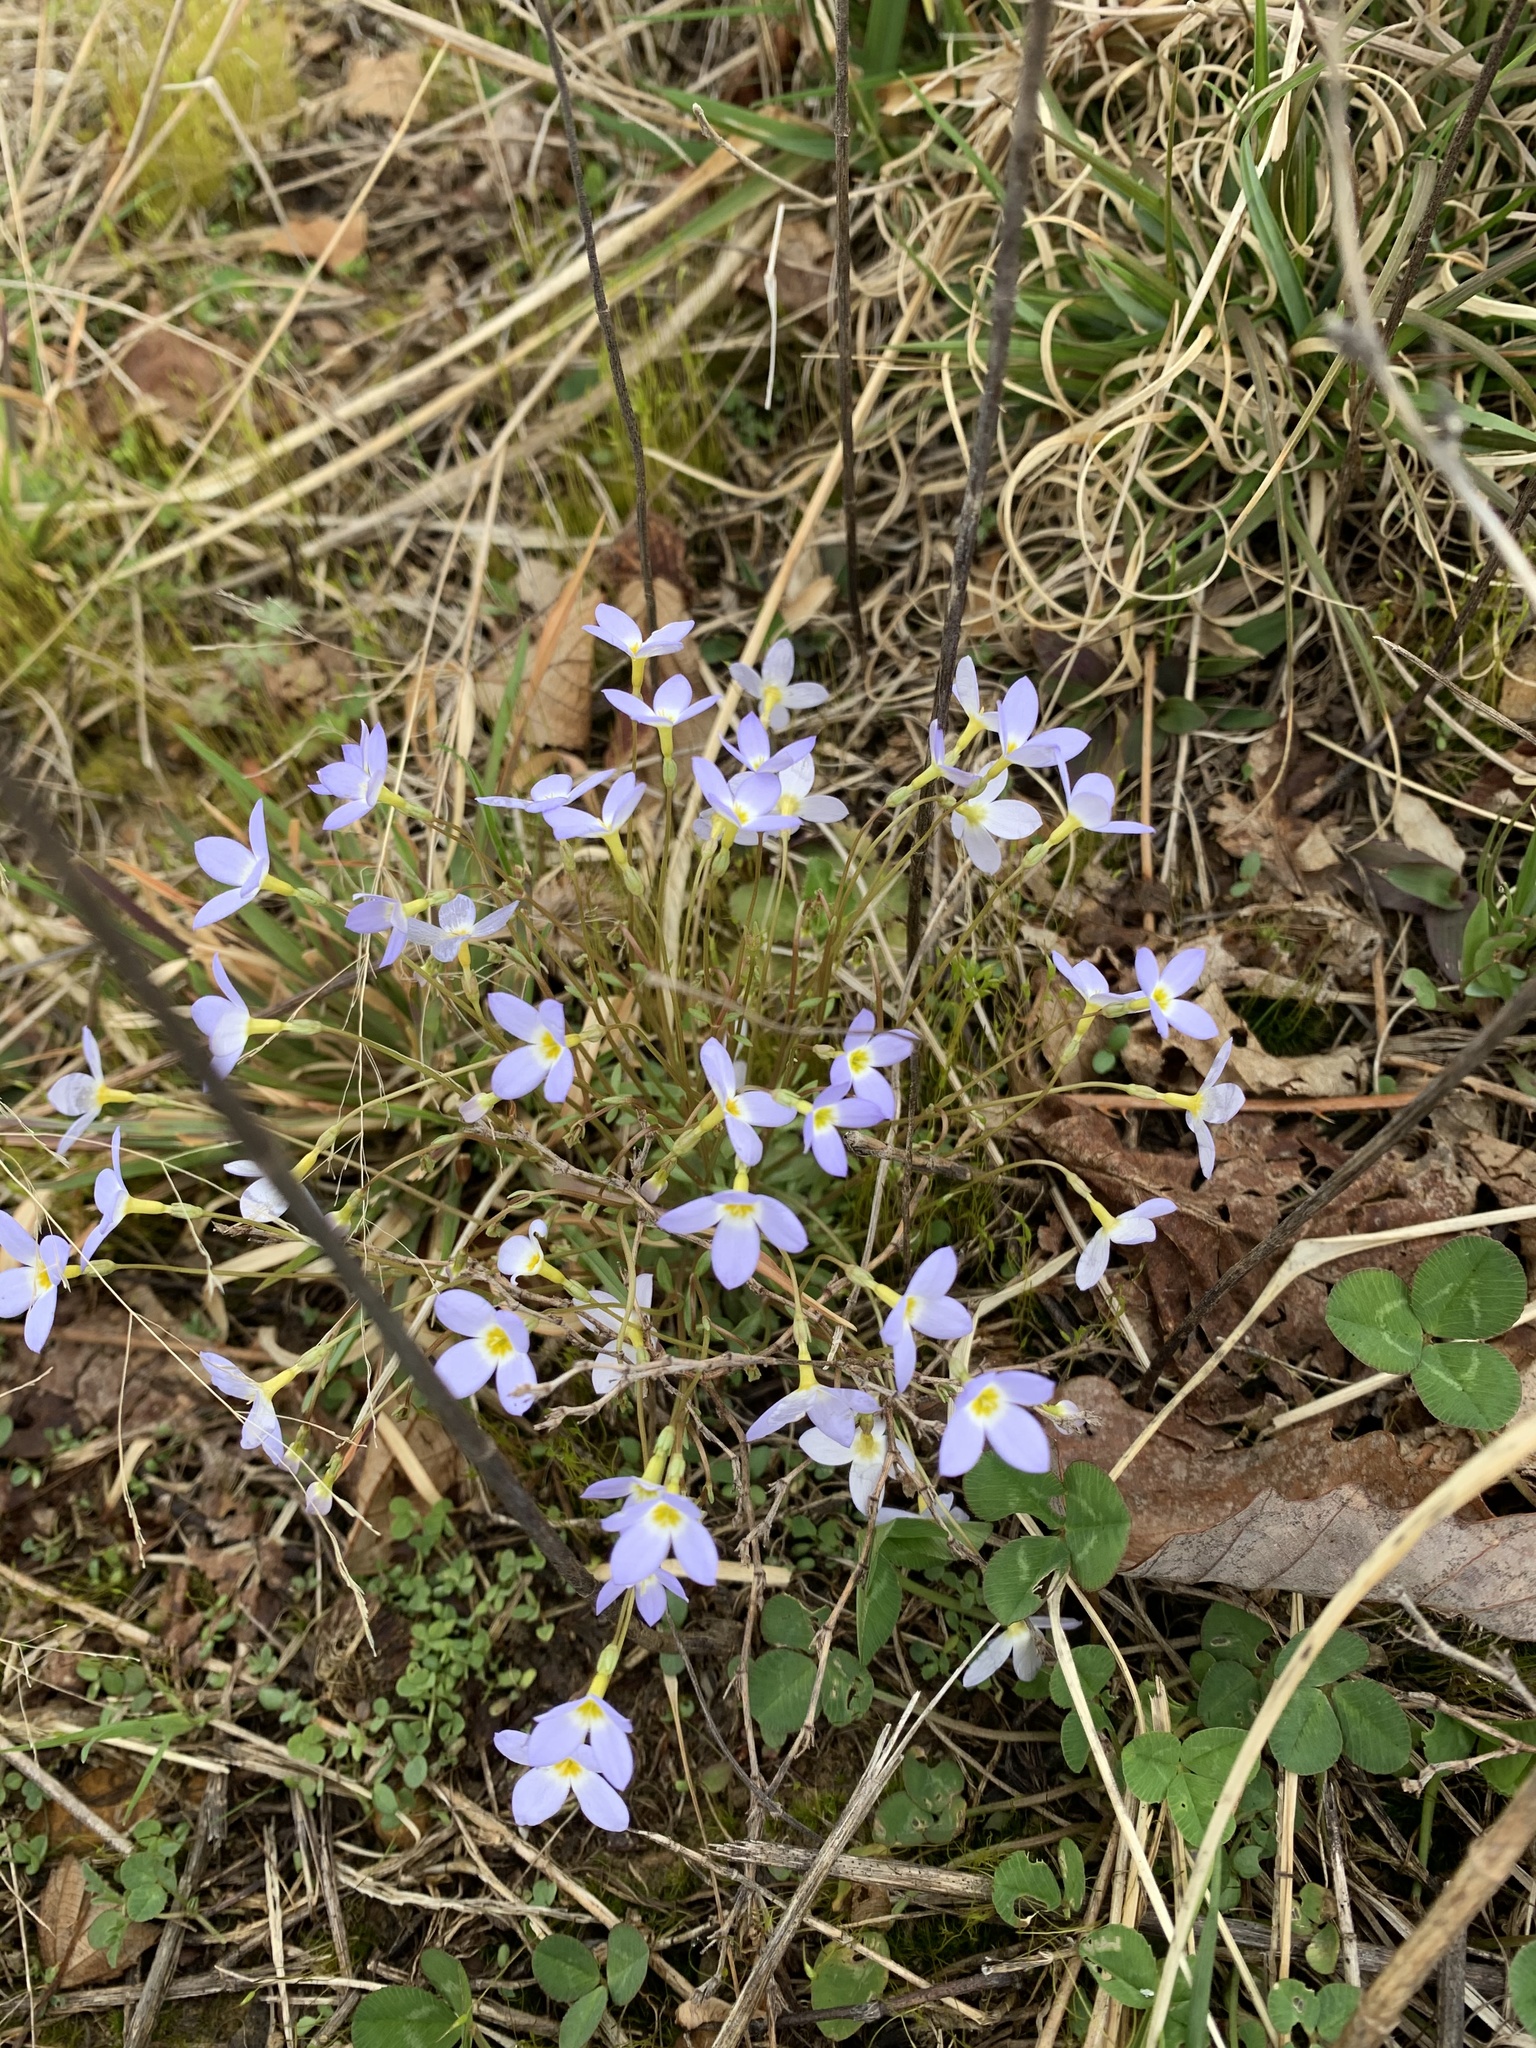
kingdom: Plantae
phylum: Tracheophyta
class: Magnoliopsida
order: Gentianales
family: Rubiaceae
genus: Houstonia
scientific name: Houstonia caerulea
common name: Bluets
